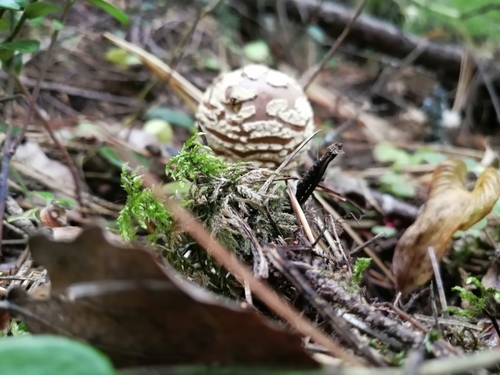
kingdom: Fungi
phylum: Basidiomycota
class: Agaricomycetes
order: Agaricales
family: Amanitaceae
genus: Amanita
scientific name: Amanita regalis
